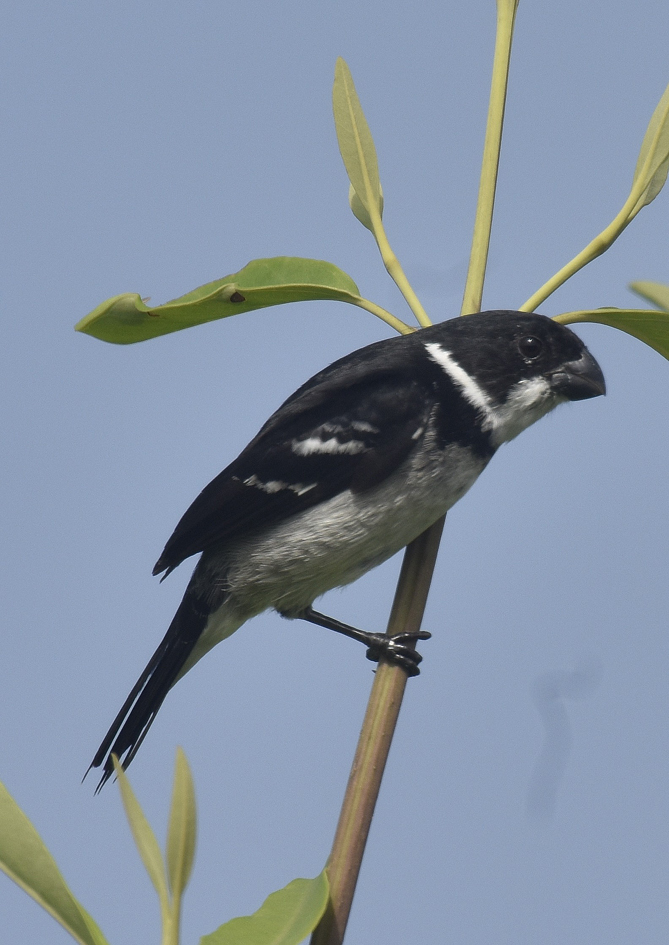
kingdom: Animalia
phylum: Chordata
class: Aves
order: Passeriformes
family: Thraupidae
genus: Sporophila
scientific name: Sporophila americana
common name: Wing-barred seedeater
